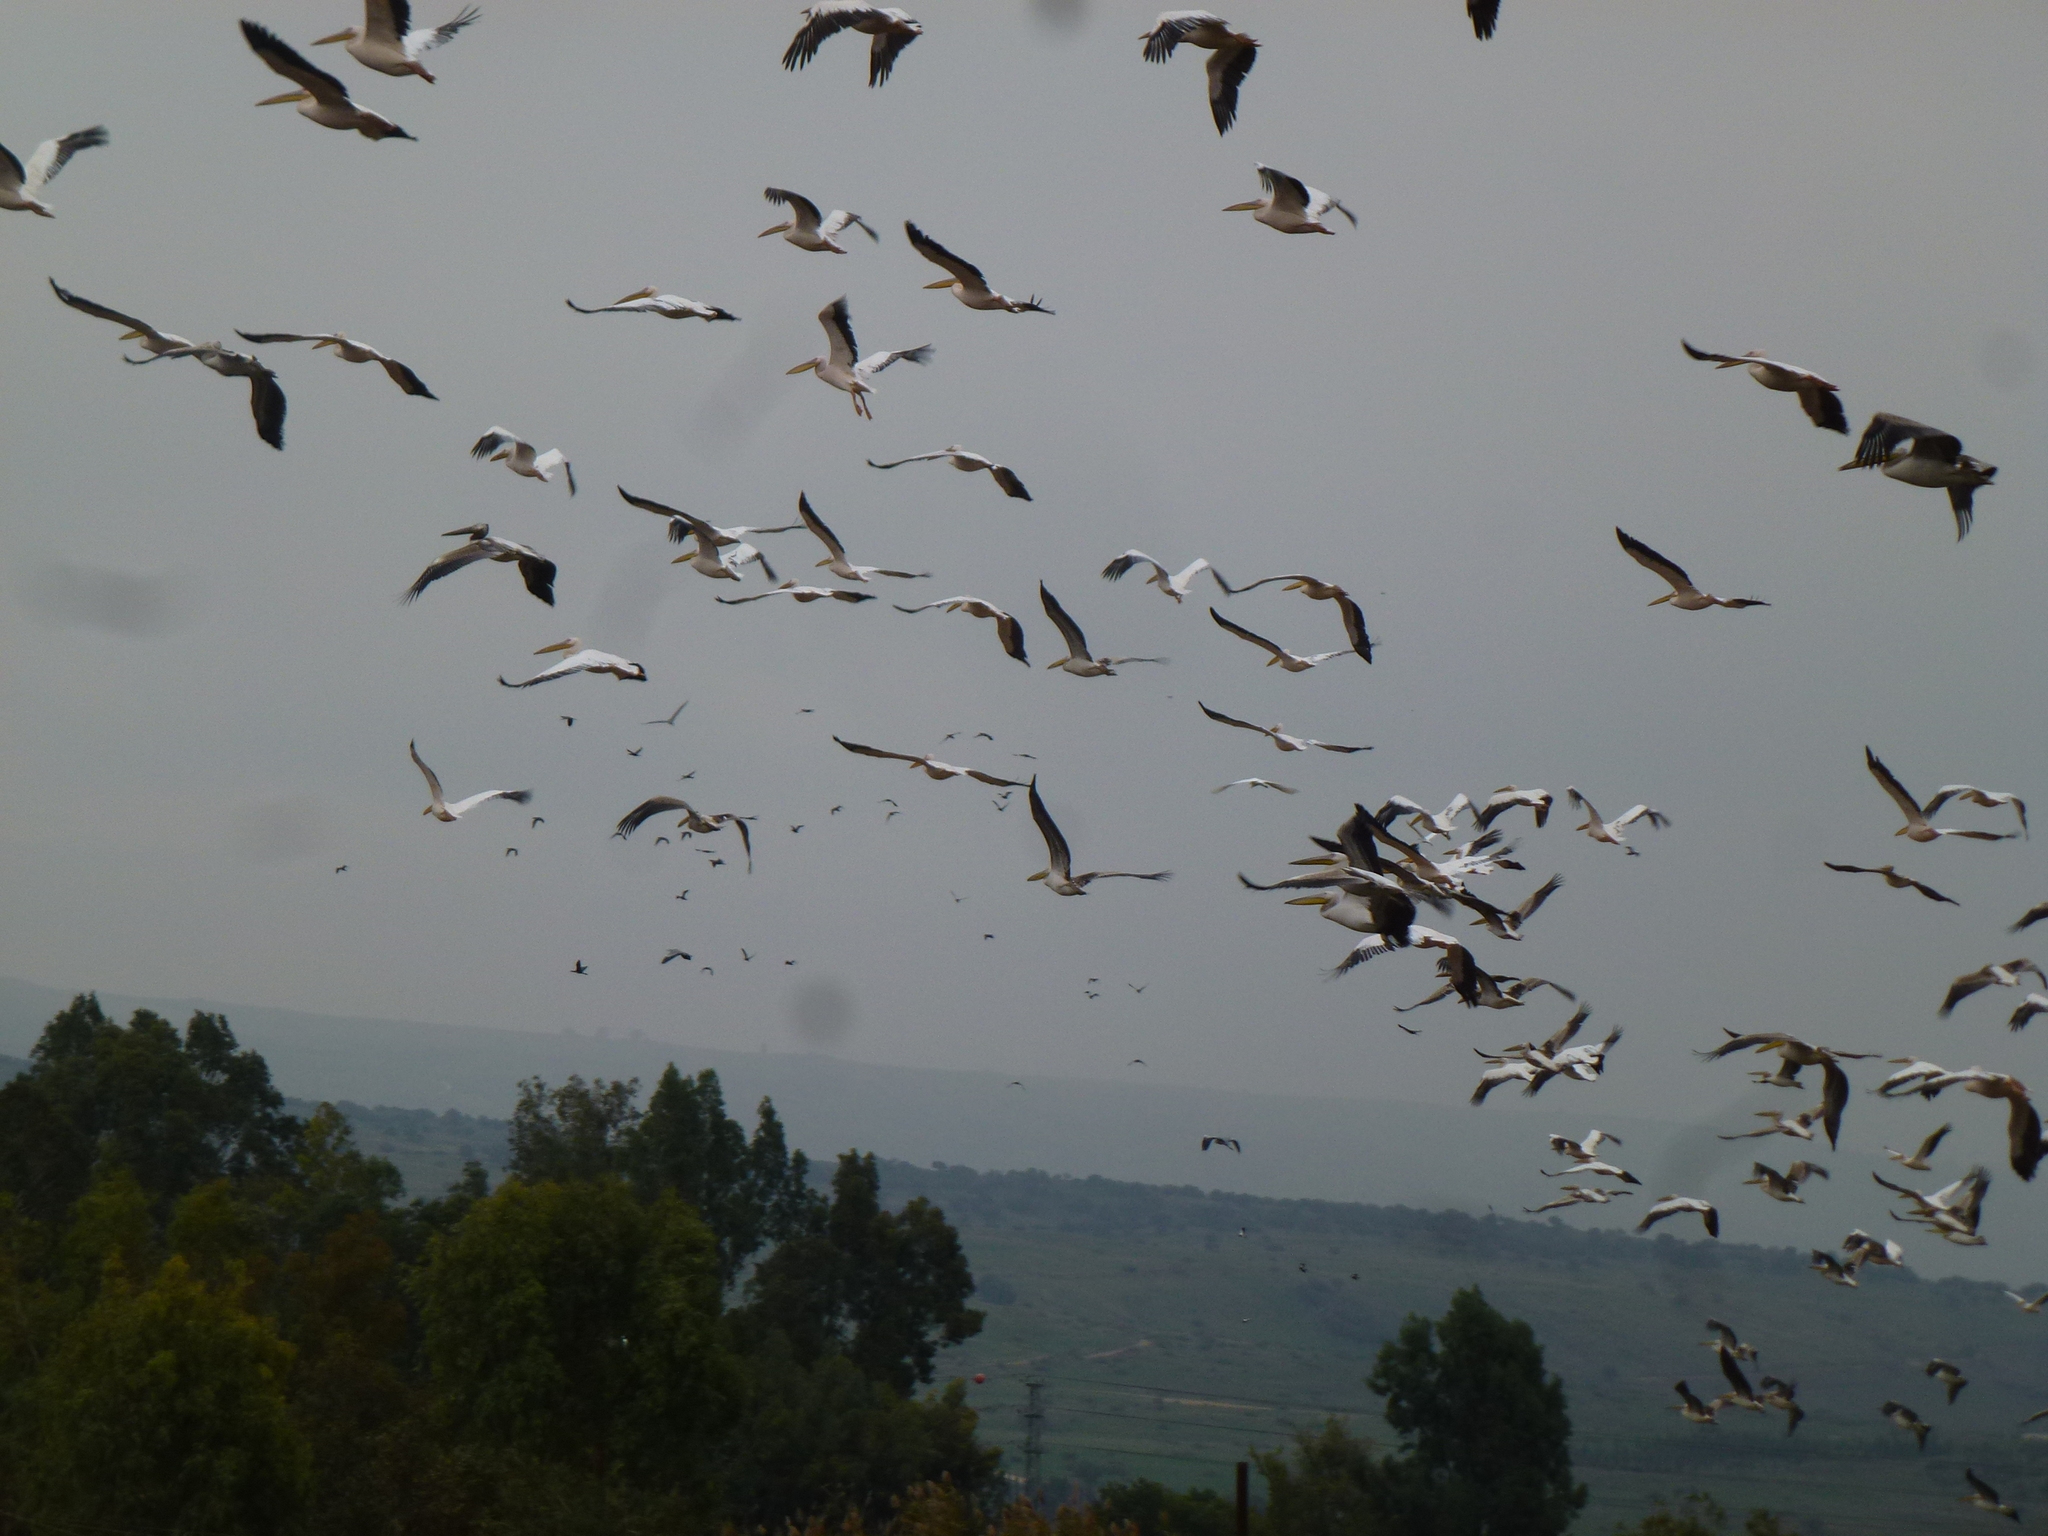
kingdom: Animalia
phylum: Chordata
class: Aves
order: Pelecaniformes
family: Pelecanidae
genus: Pelecanus
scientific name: Pelecanus onocrotalus
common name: Great white pelican
